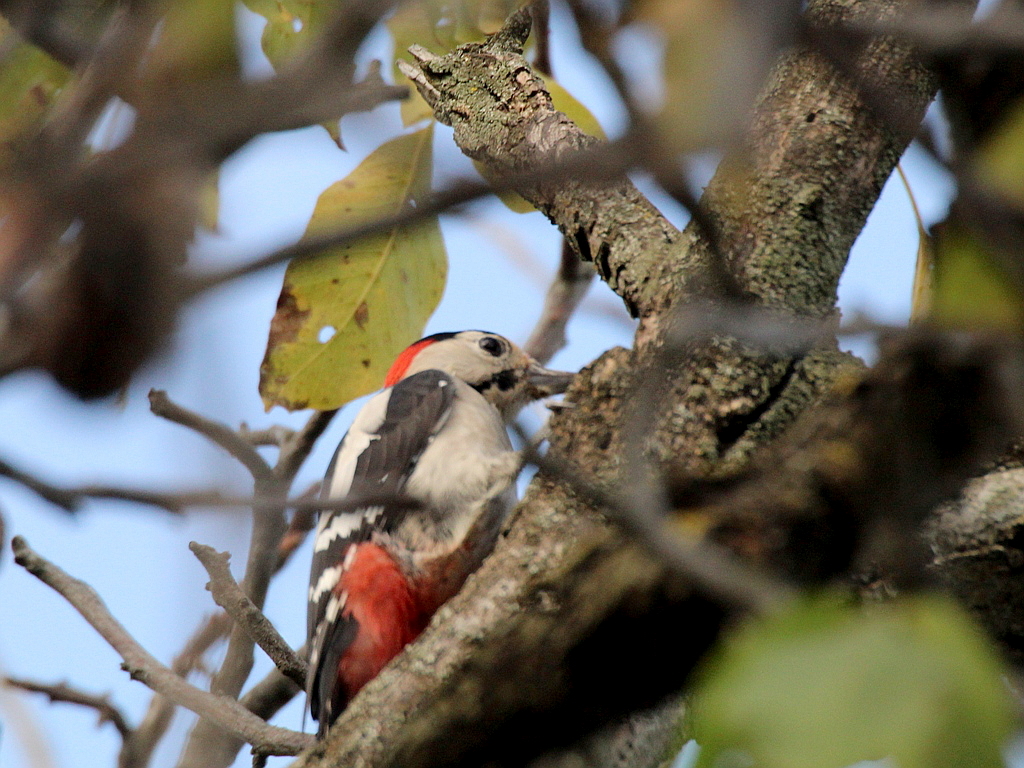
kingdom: Animalia
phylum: Chordata
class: Aves
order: Piciformes
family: Picidae
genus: Dendrocopos
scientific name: Dendrocopos syriacus
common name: Syrian woodpecker
